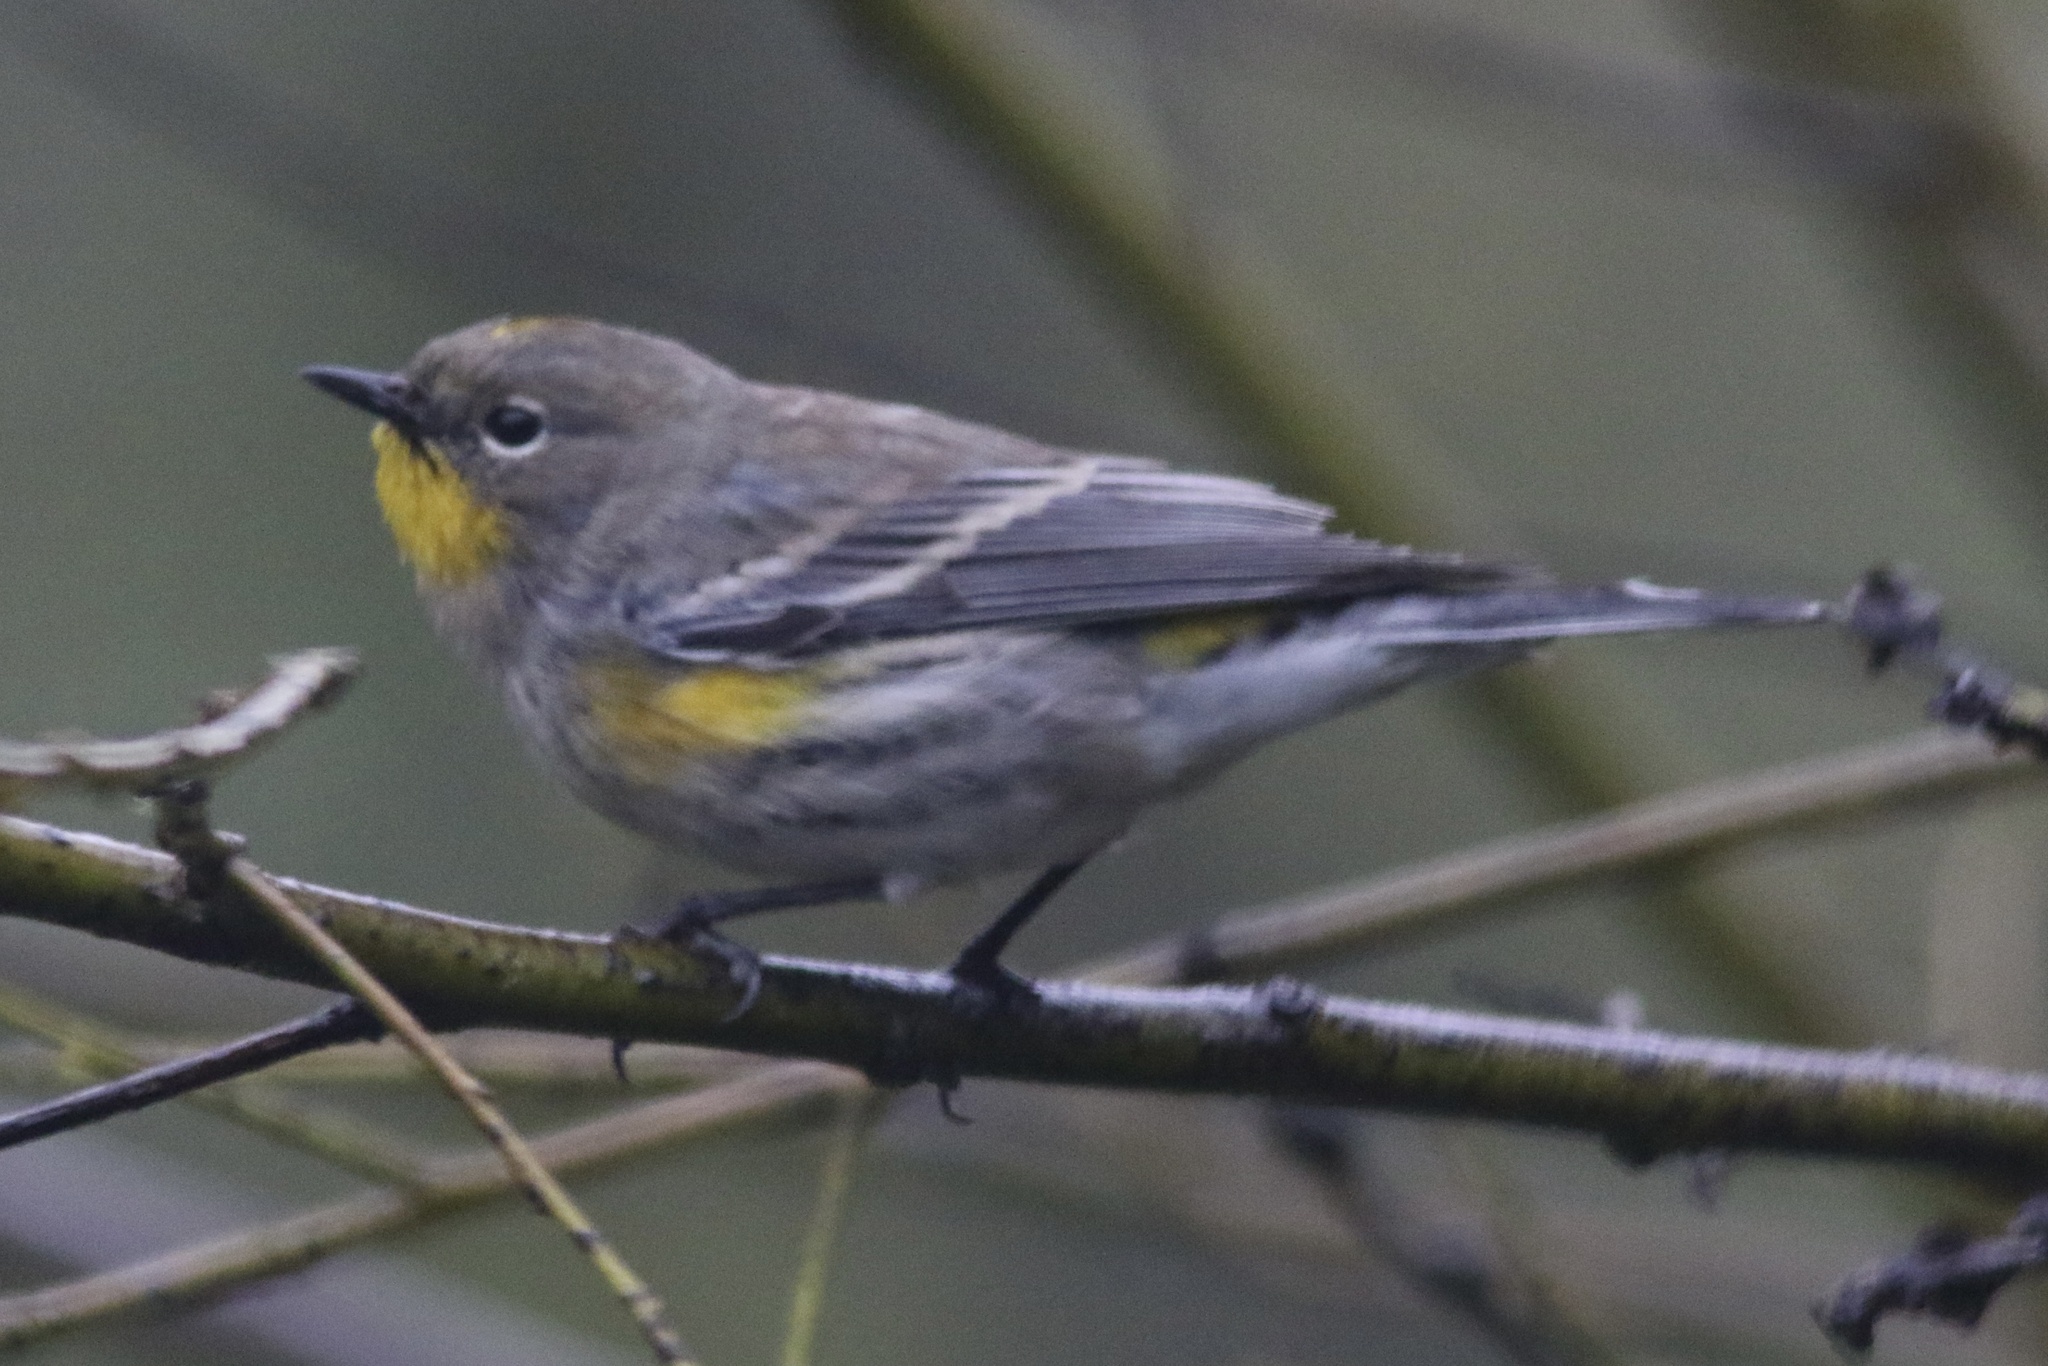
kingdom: Animalia
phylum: Chordata
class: Aves
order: Passeriformes
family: Parulidae
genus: Setophaga
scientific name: Setophaga coronata
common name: Myrtle warbler
